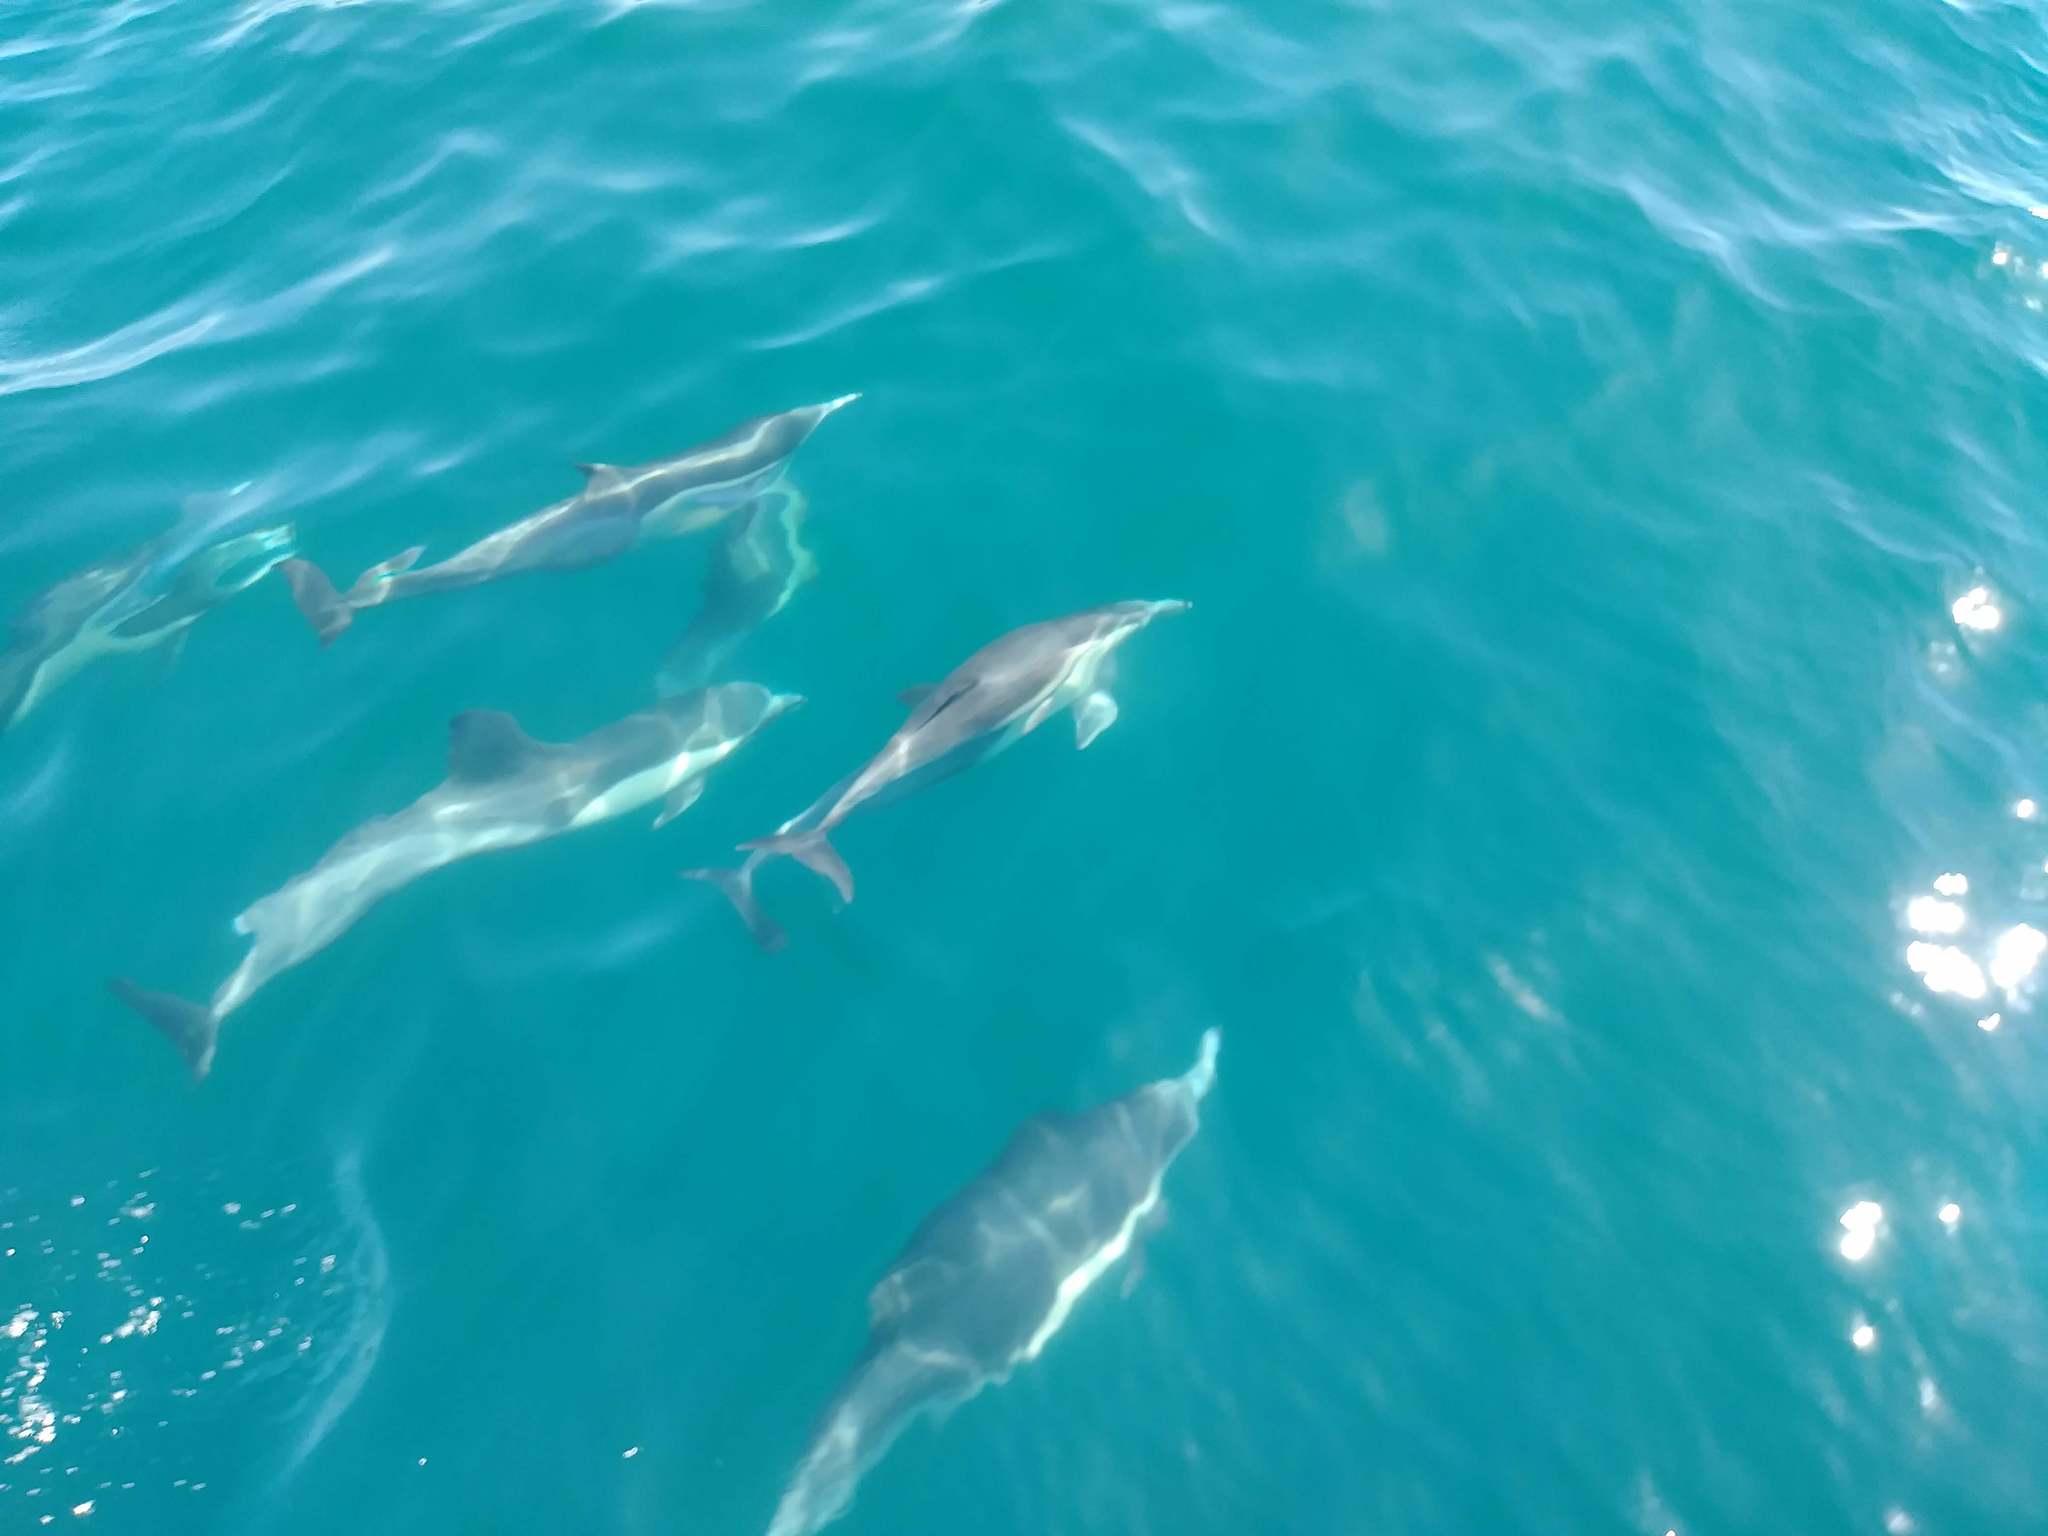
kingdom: Animalia
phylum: Chordata
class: Mammalia
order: Cetacea
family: Delphinidae
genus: Delphinus
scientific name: Delphinus delphis
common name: Common dolphin
